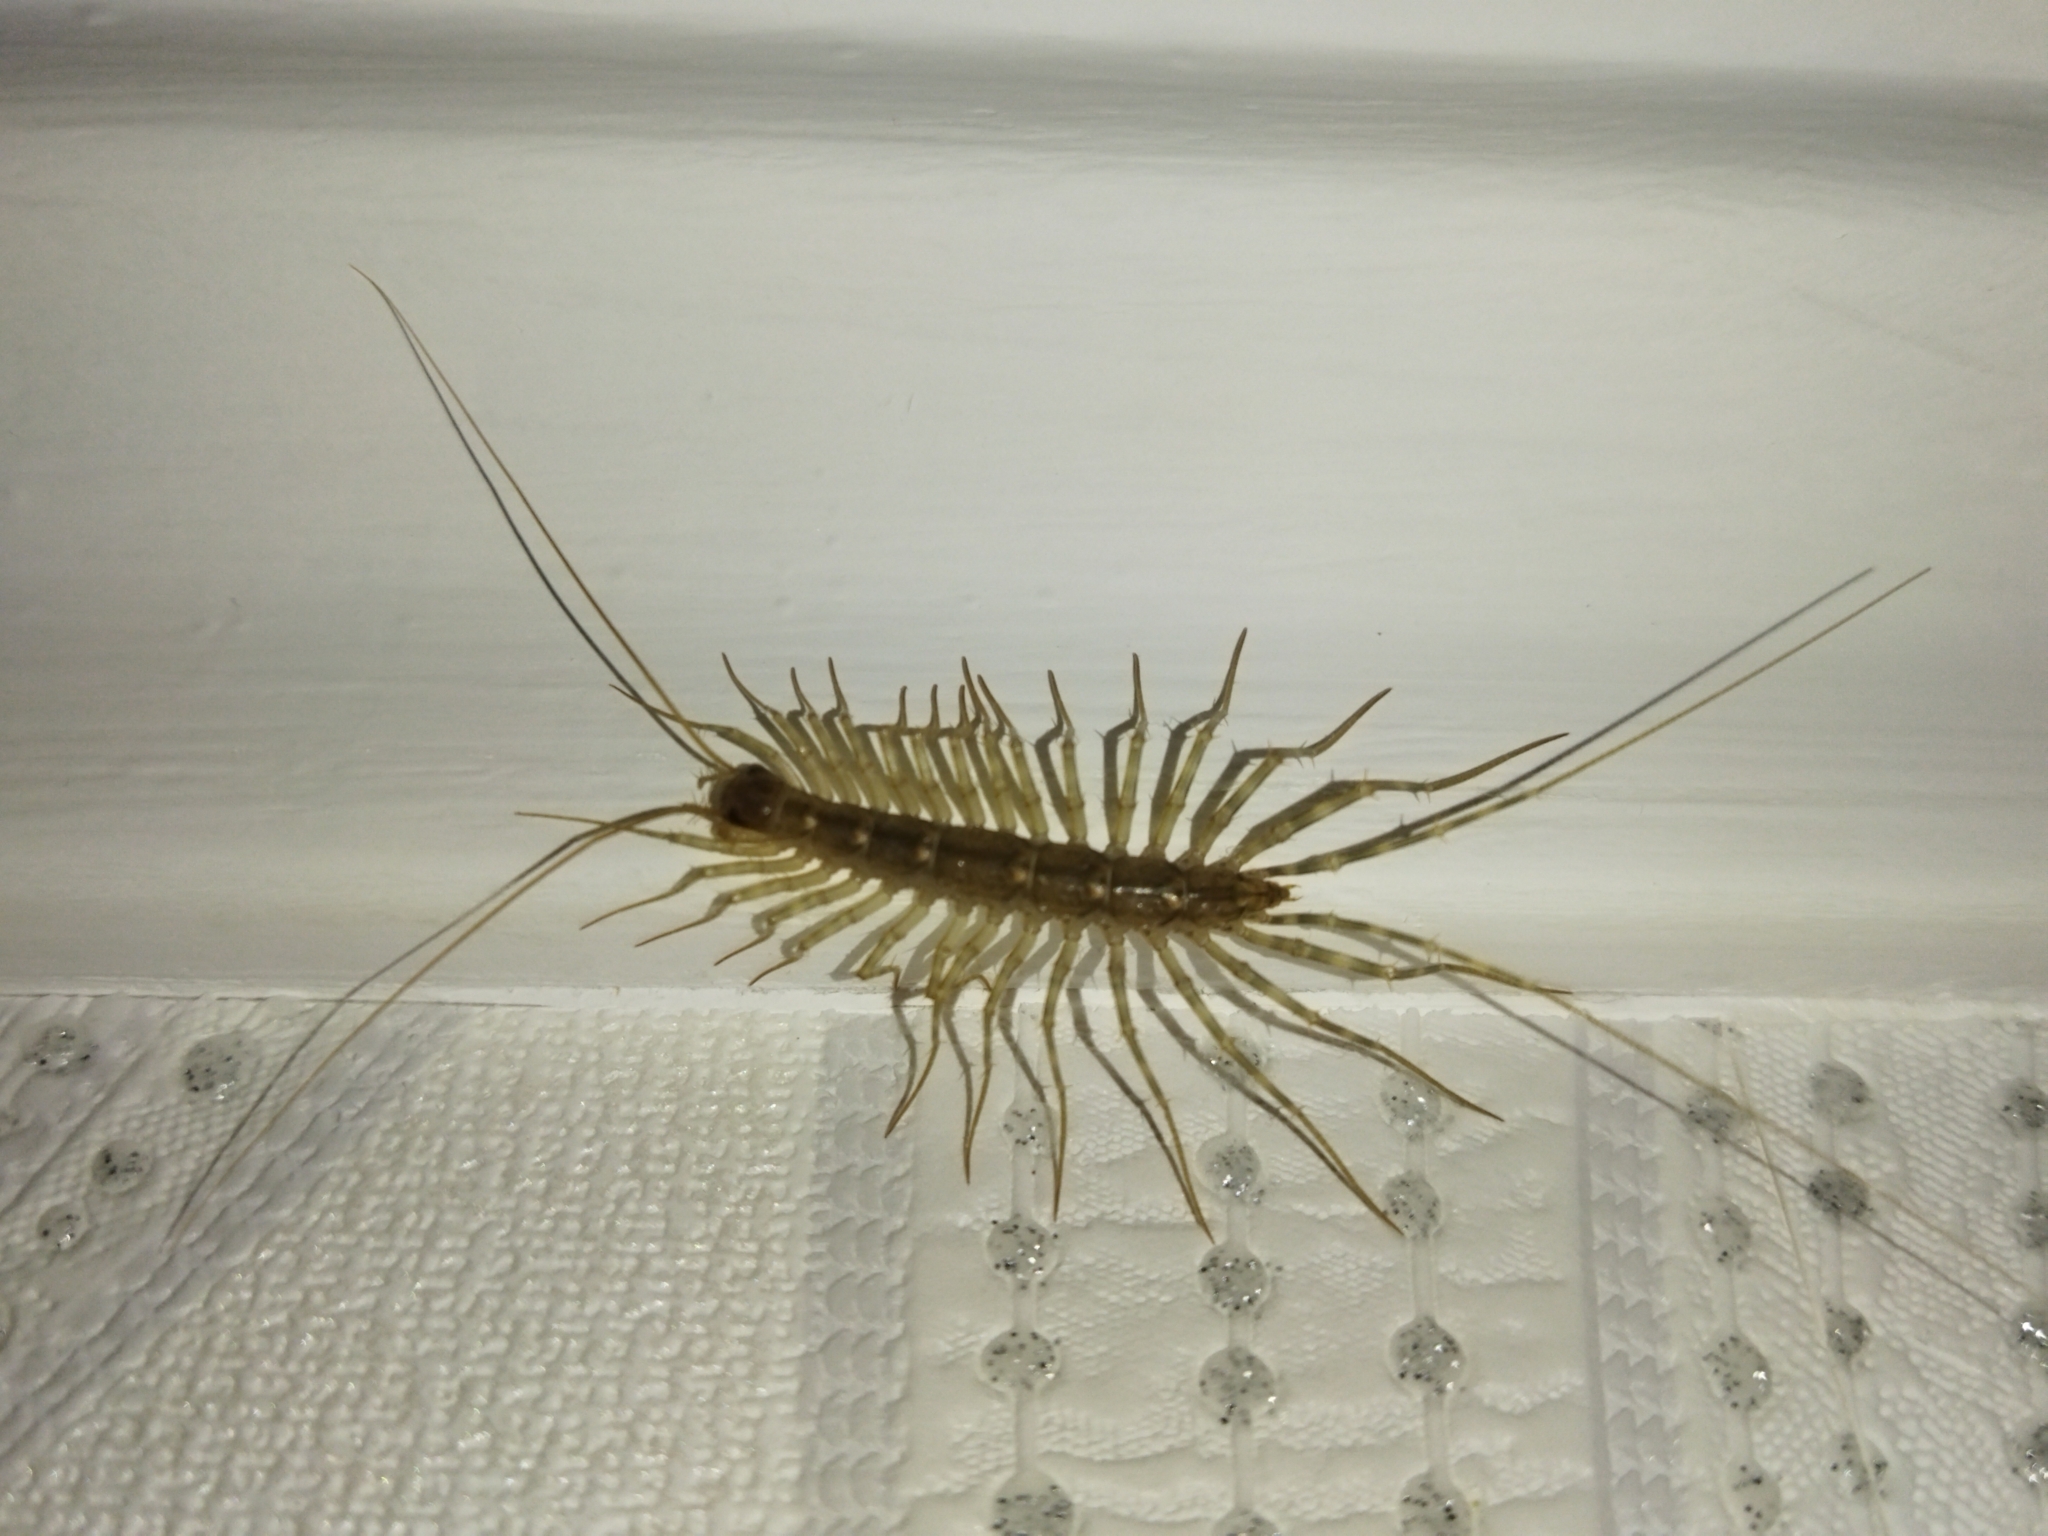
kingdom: Animalia
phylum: Arthropoda
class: Chilopoda
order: Scutigeromorpha
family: Scutigeridae
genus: Scutigera
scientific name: Scutigera coleoptrata
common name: House centipede
